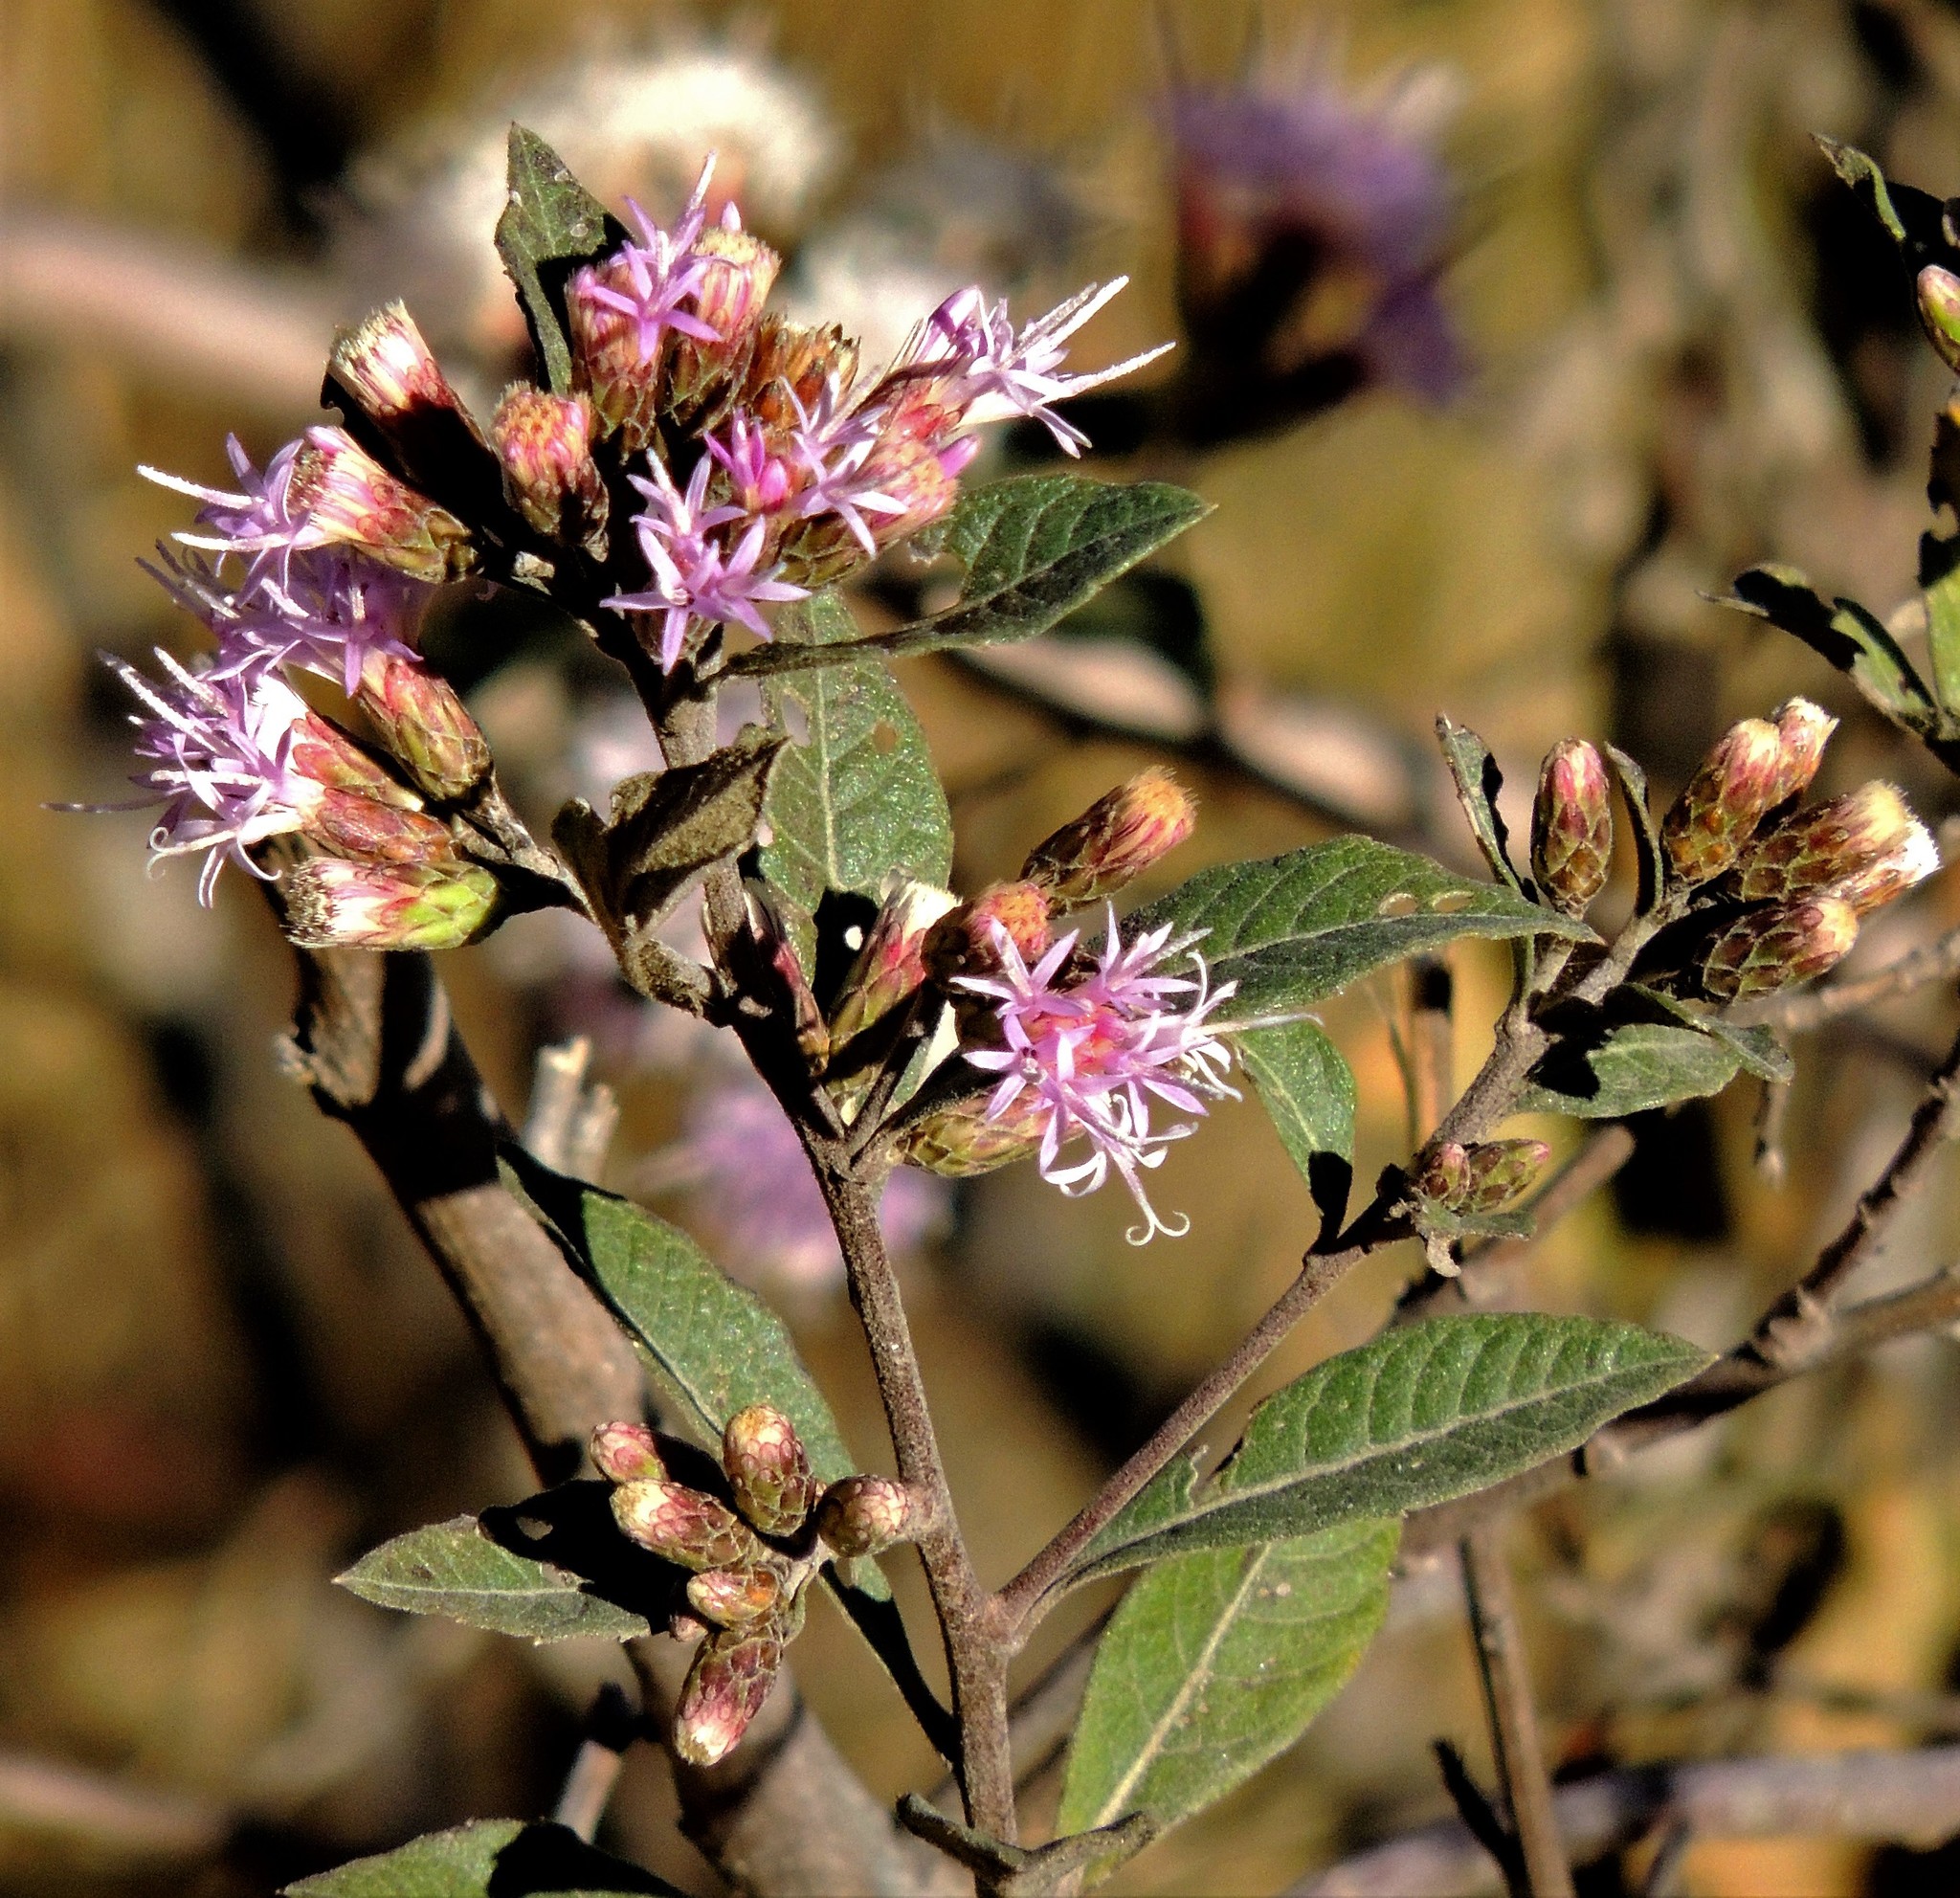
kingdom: Plantae
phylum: Tracheophyta
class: Magnoliopsida
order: Asterales
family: Asteraceae
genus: Vernonanthura
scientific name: Vernonanthura squamulosa
